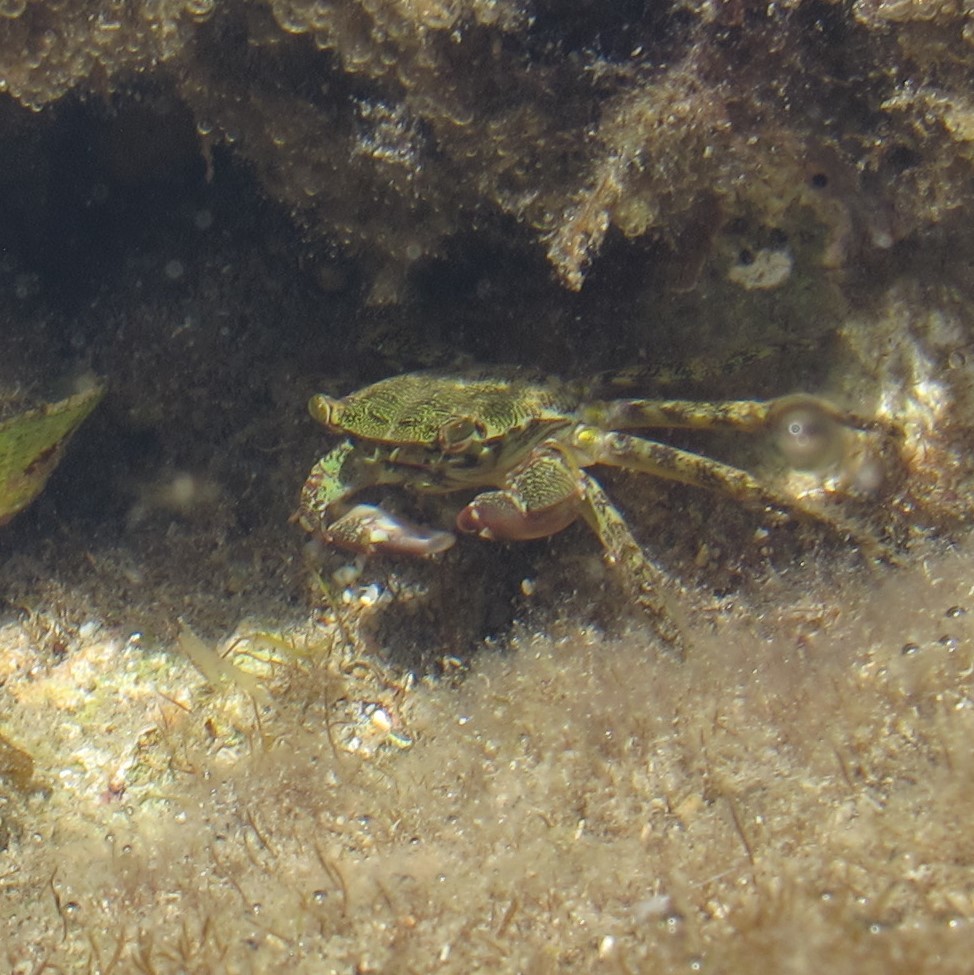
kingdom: Animalia
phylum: Arthropoda
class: Malacostraca
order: Decapoda
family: Grapsidae
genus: Pachygrapsus
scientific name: Pachygrapsus marmoratus
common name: Marbled rock crab
